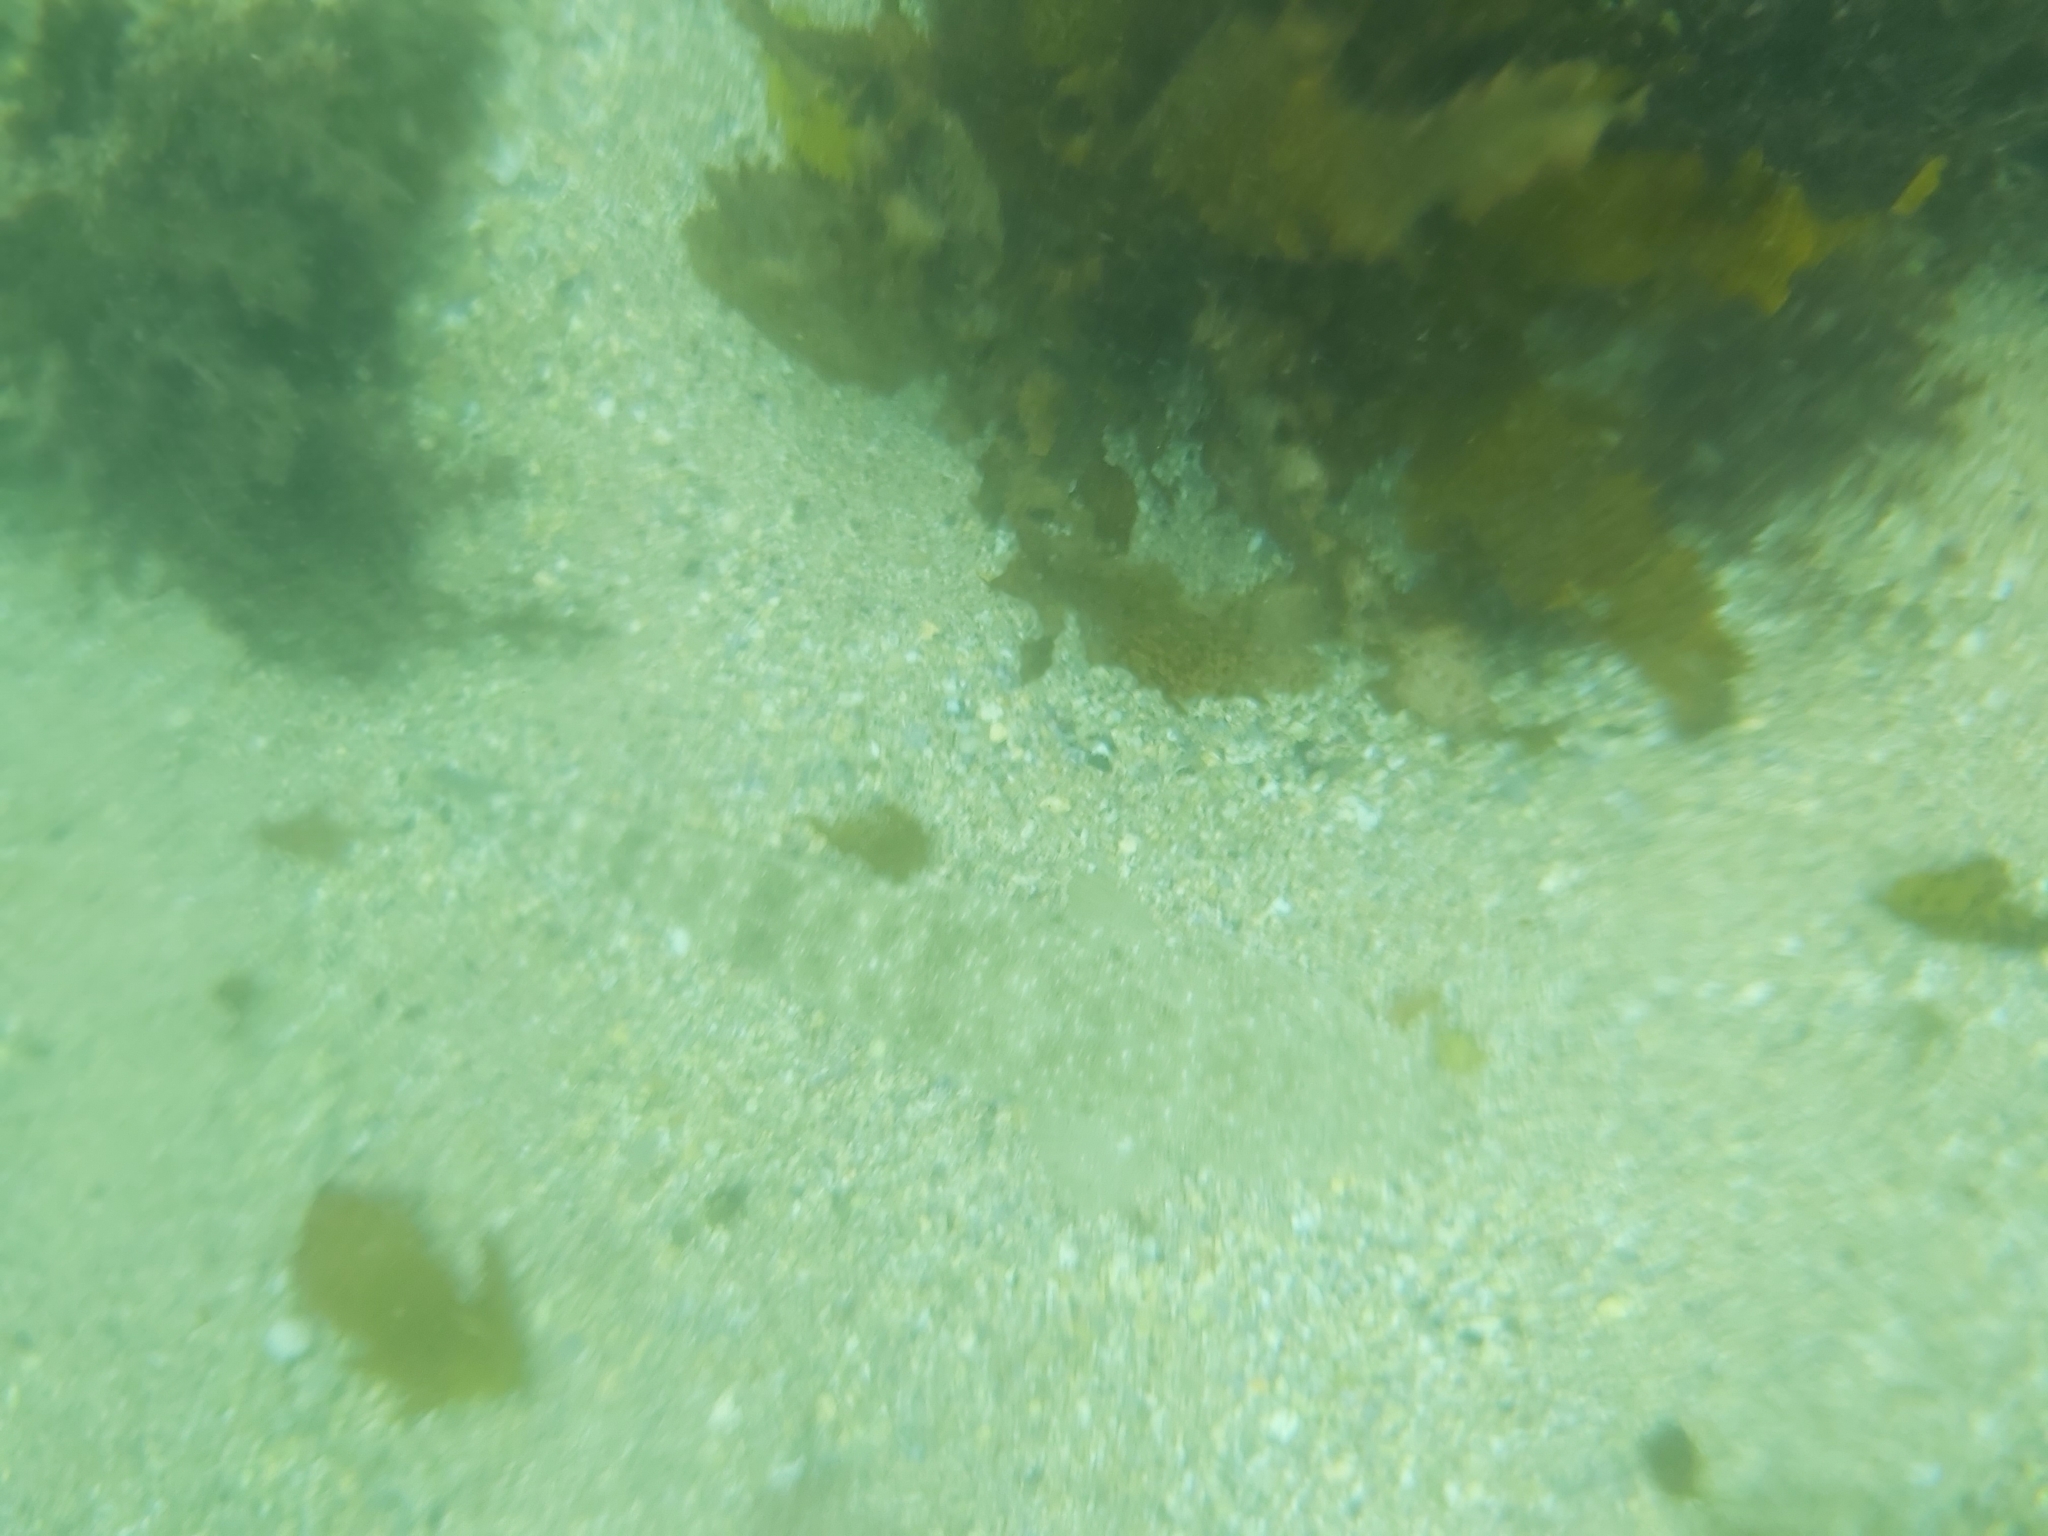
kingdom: Animalia
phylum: Chordata
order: Scorpaeniformes
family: Platycephalidae
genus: Platycephalus
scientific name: Platycephalus fuscus
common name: Dusky flathead
